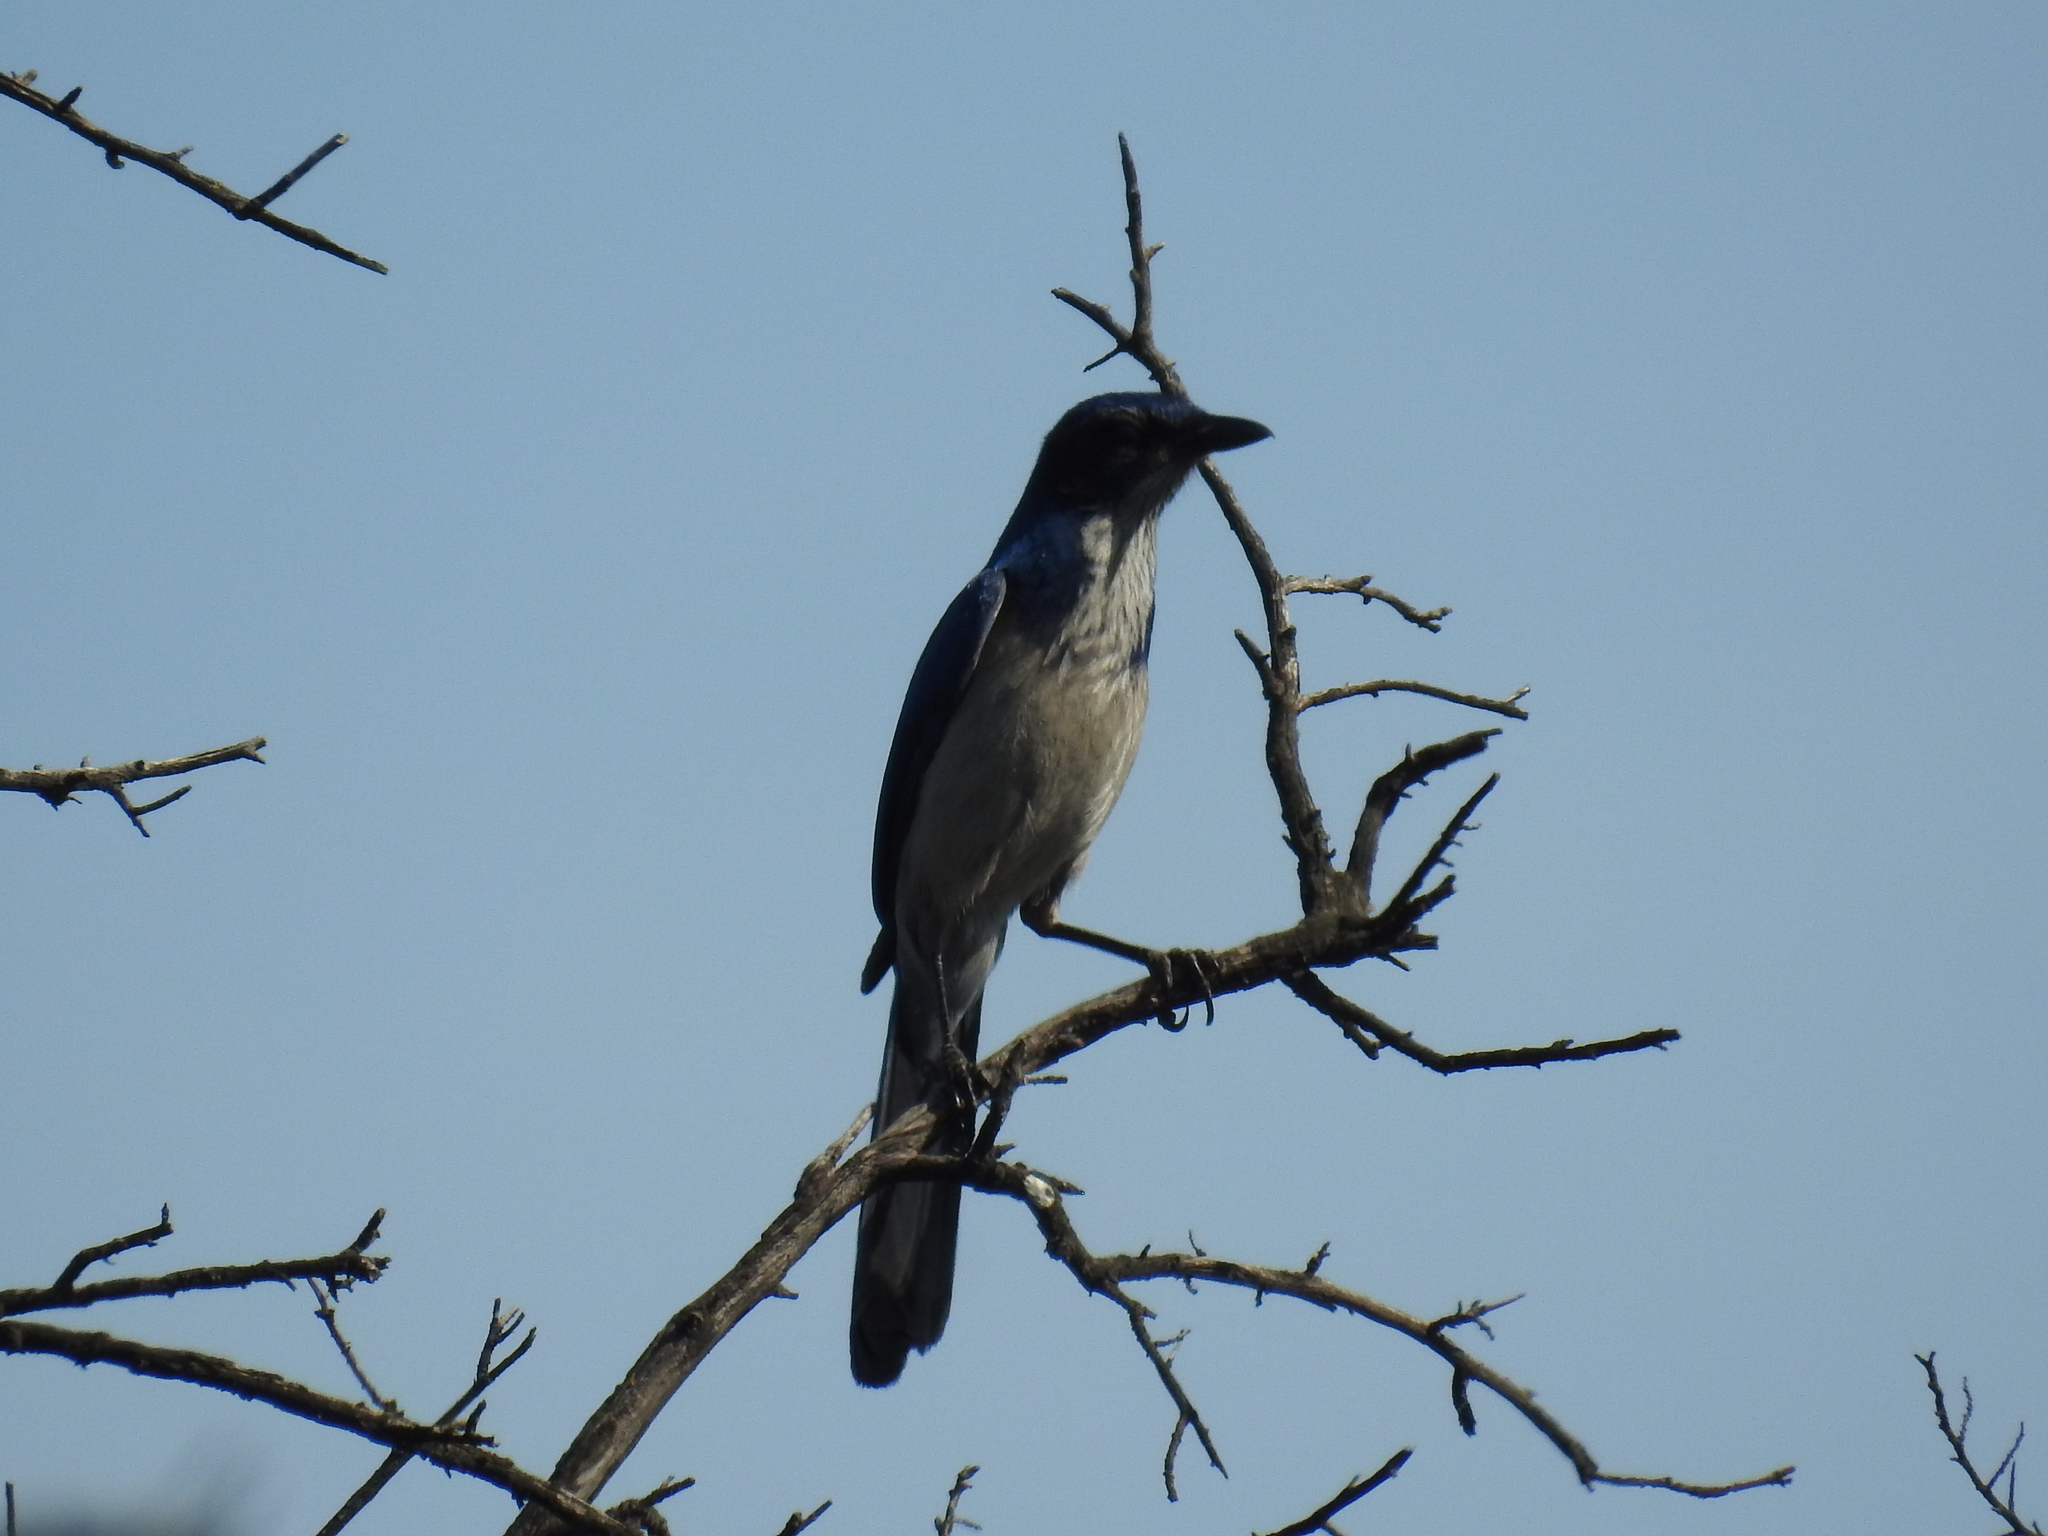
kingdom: Animalia
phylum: Chordata
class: Aves
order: Passeriformes
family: Corvidae
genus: Aphelocoma
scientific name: Aphelocoma californica
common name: California scrub-jay
